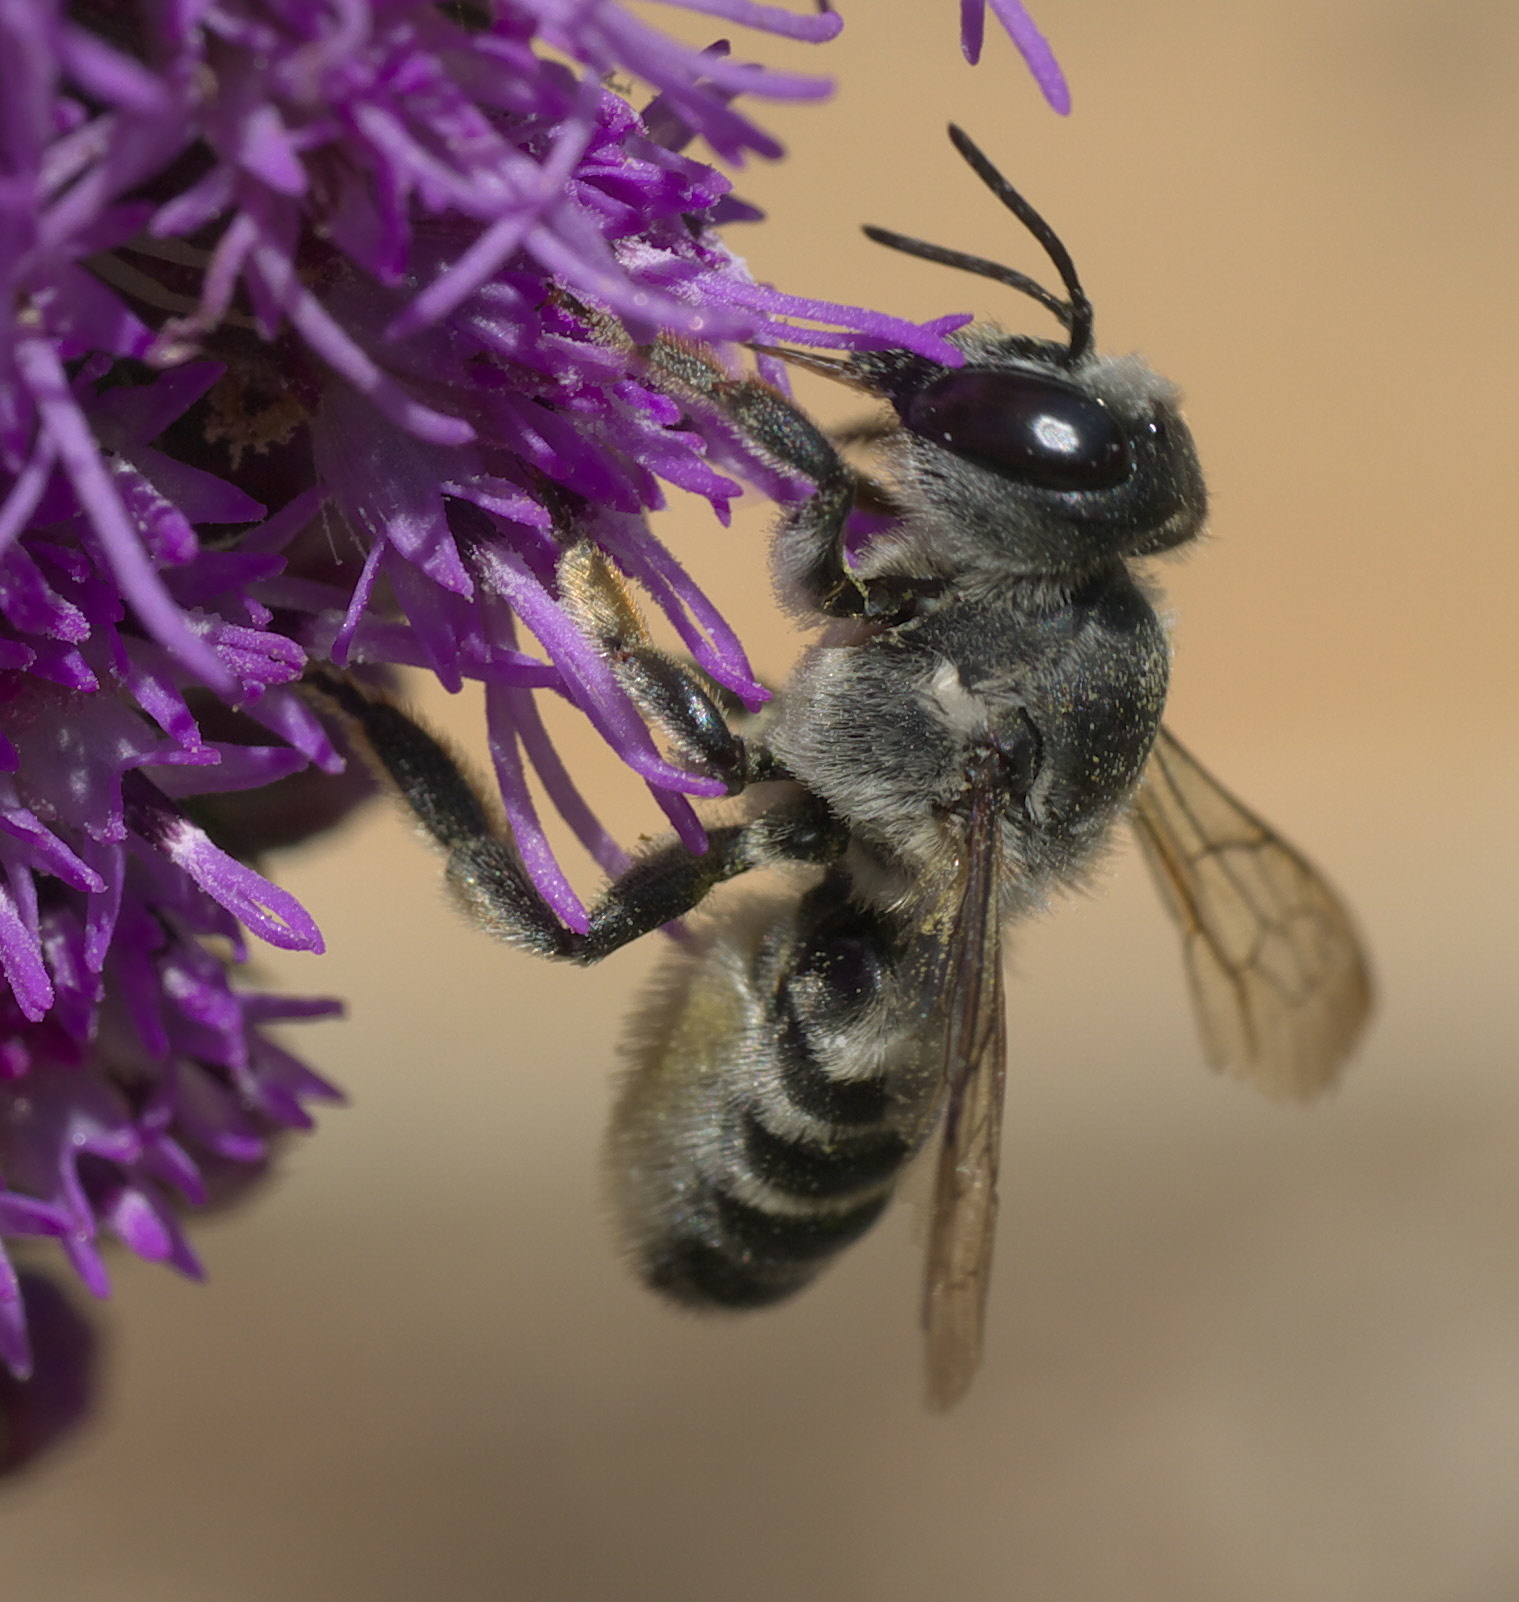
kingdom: Animalia
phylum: Arthropoda
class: Insecta
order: Hymenoptera
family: Megachilidae
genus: Megachile
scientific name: Megachile policaris
